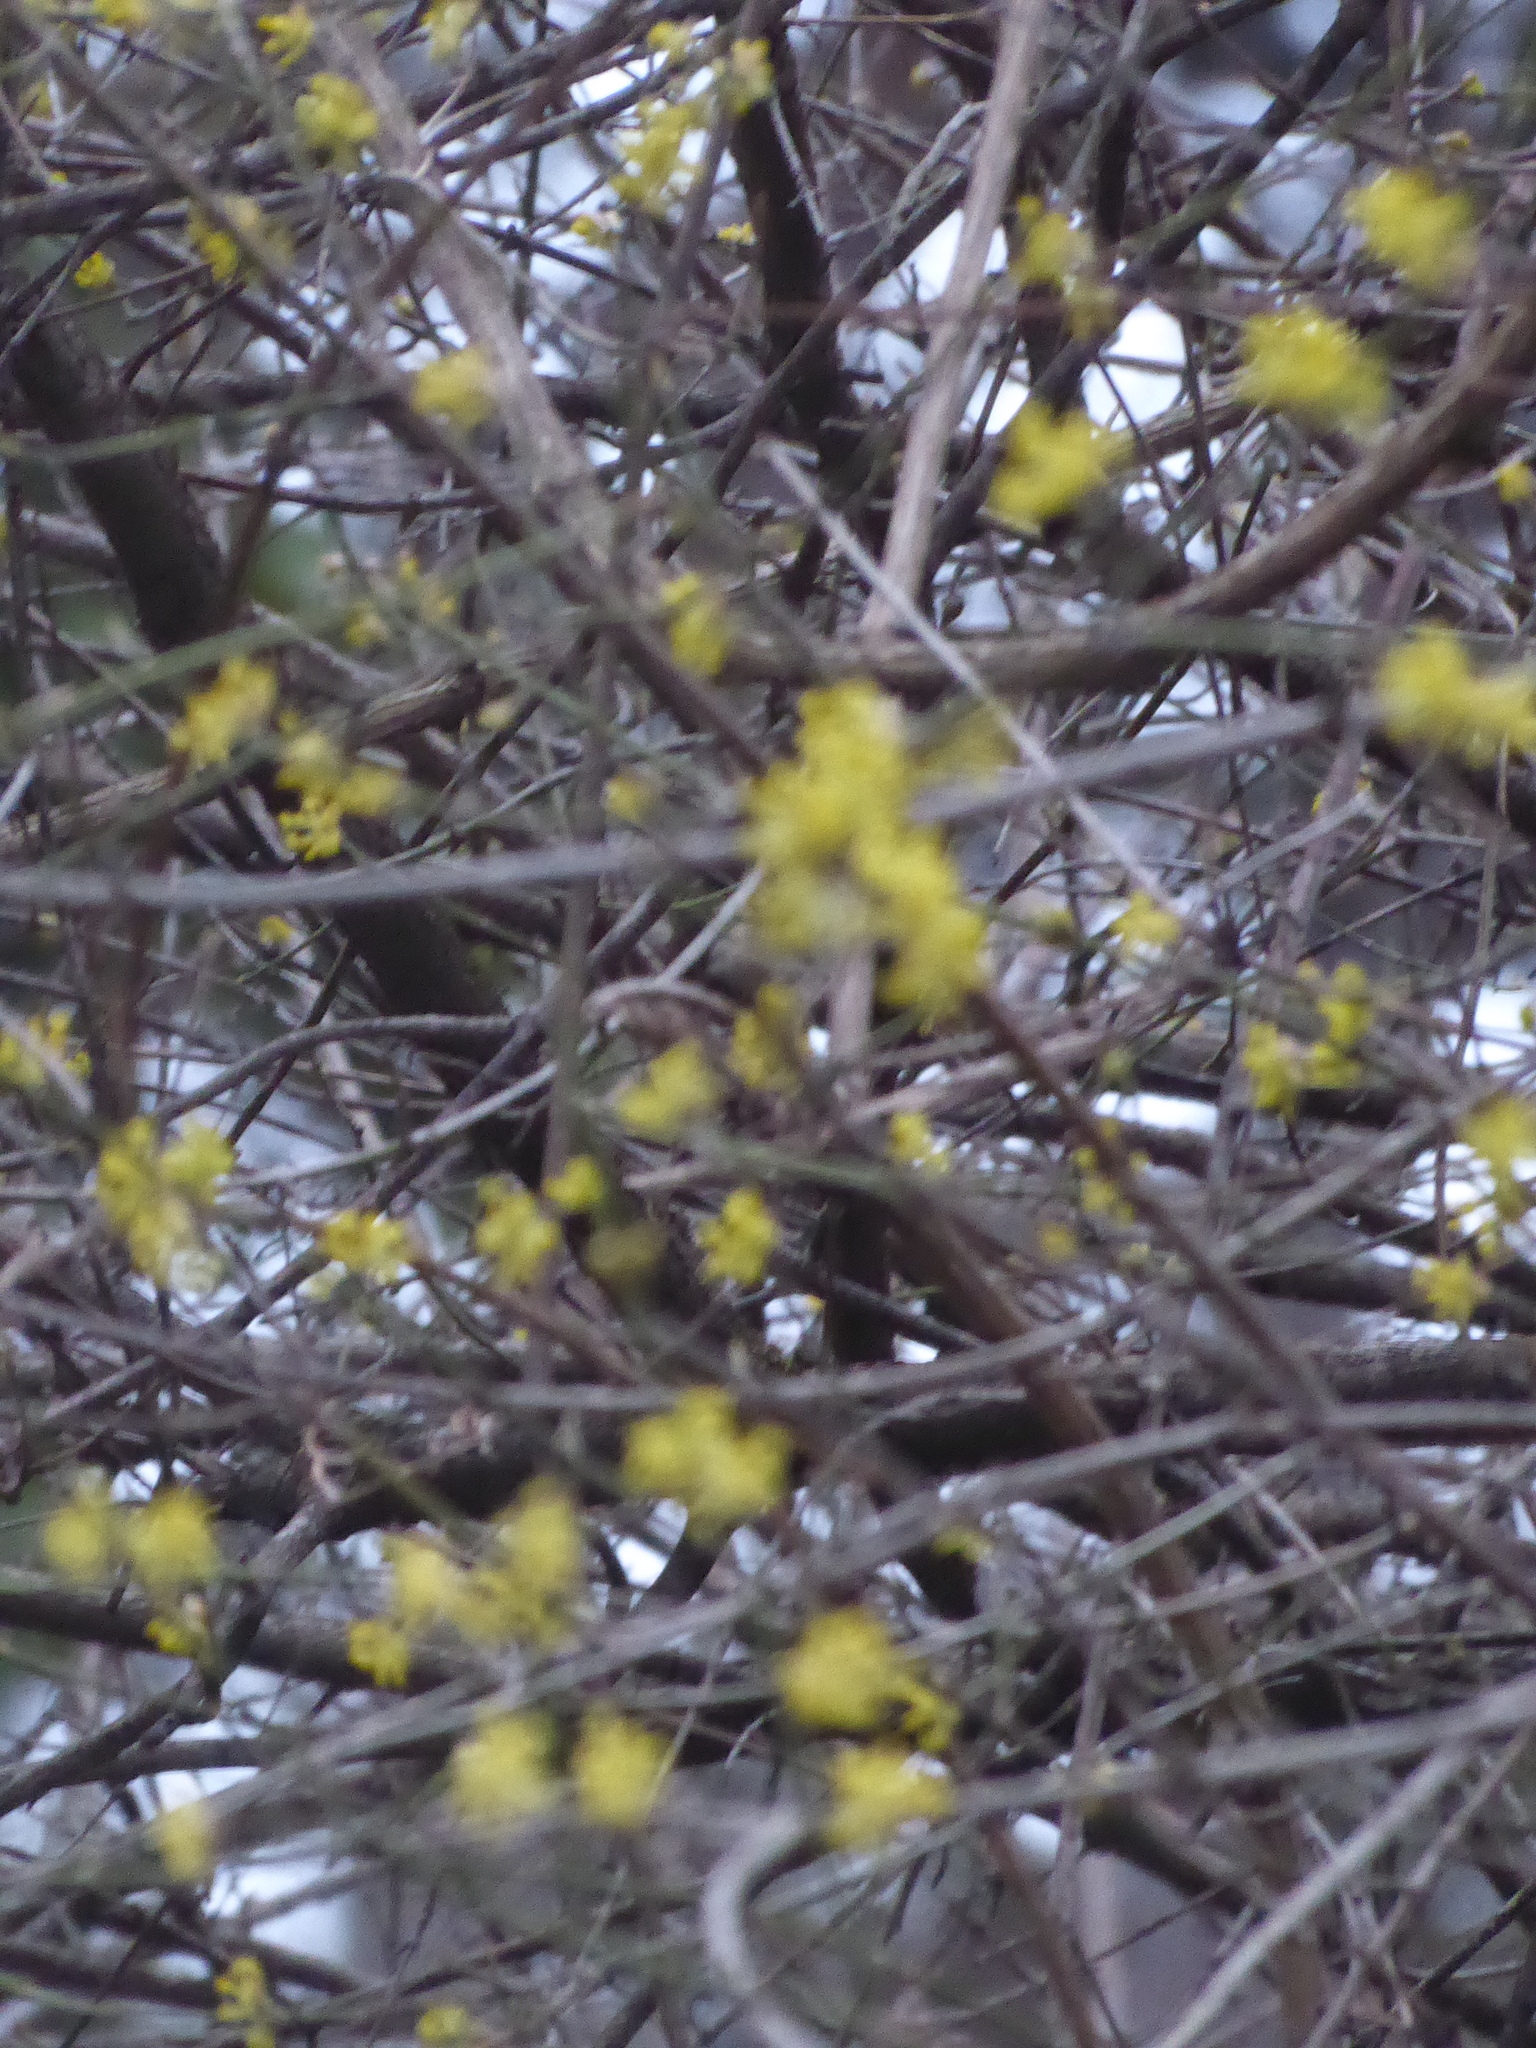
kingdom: Plantae
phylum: Tracheophyta
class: Magnoliopsida
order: Cornales
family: Cornaceae
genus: Cornus
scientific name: Cornus mas
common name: Cornelian-cherry
